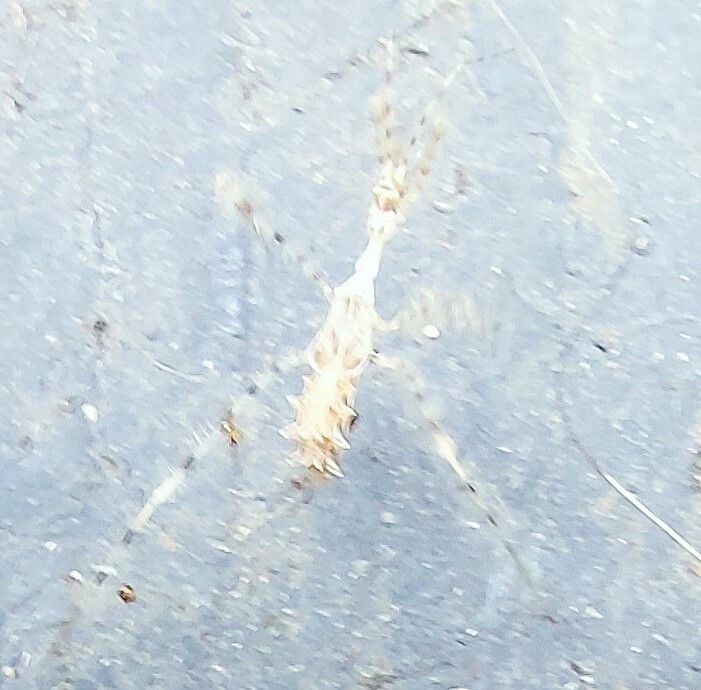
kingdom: Animalia
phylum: Arthropoda
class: Insecta
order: Hemiptera
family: Reduviidae
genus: Stenolemus
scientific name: Stenolemus fraterculus
